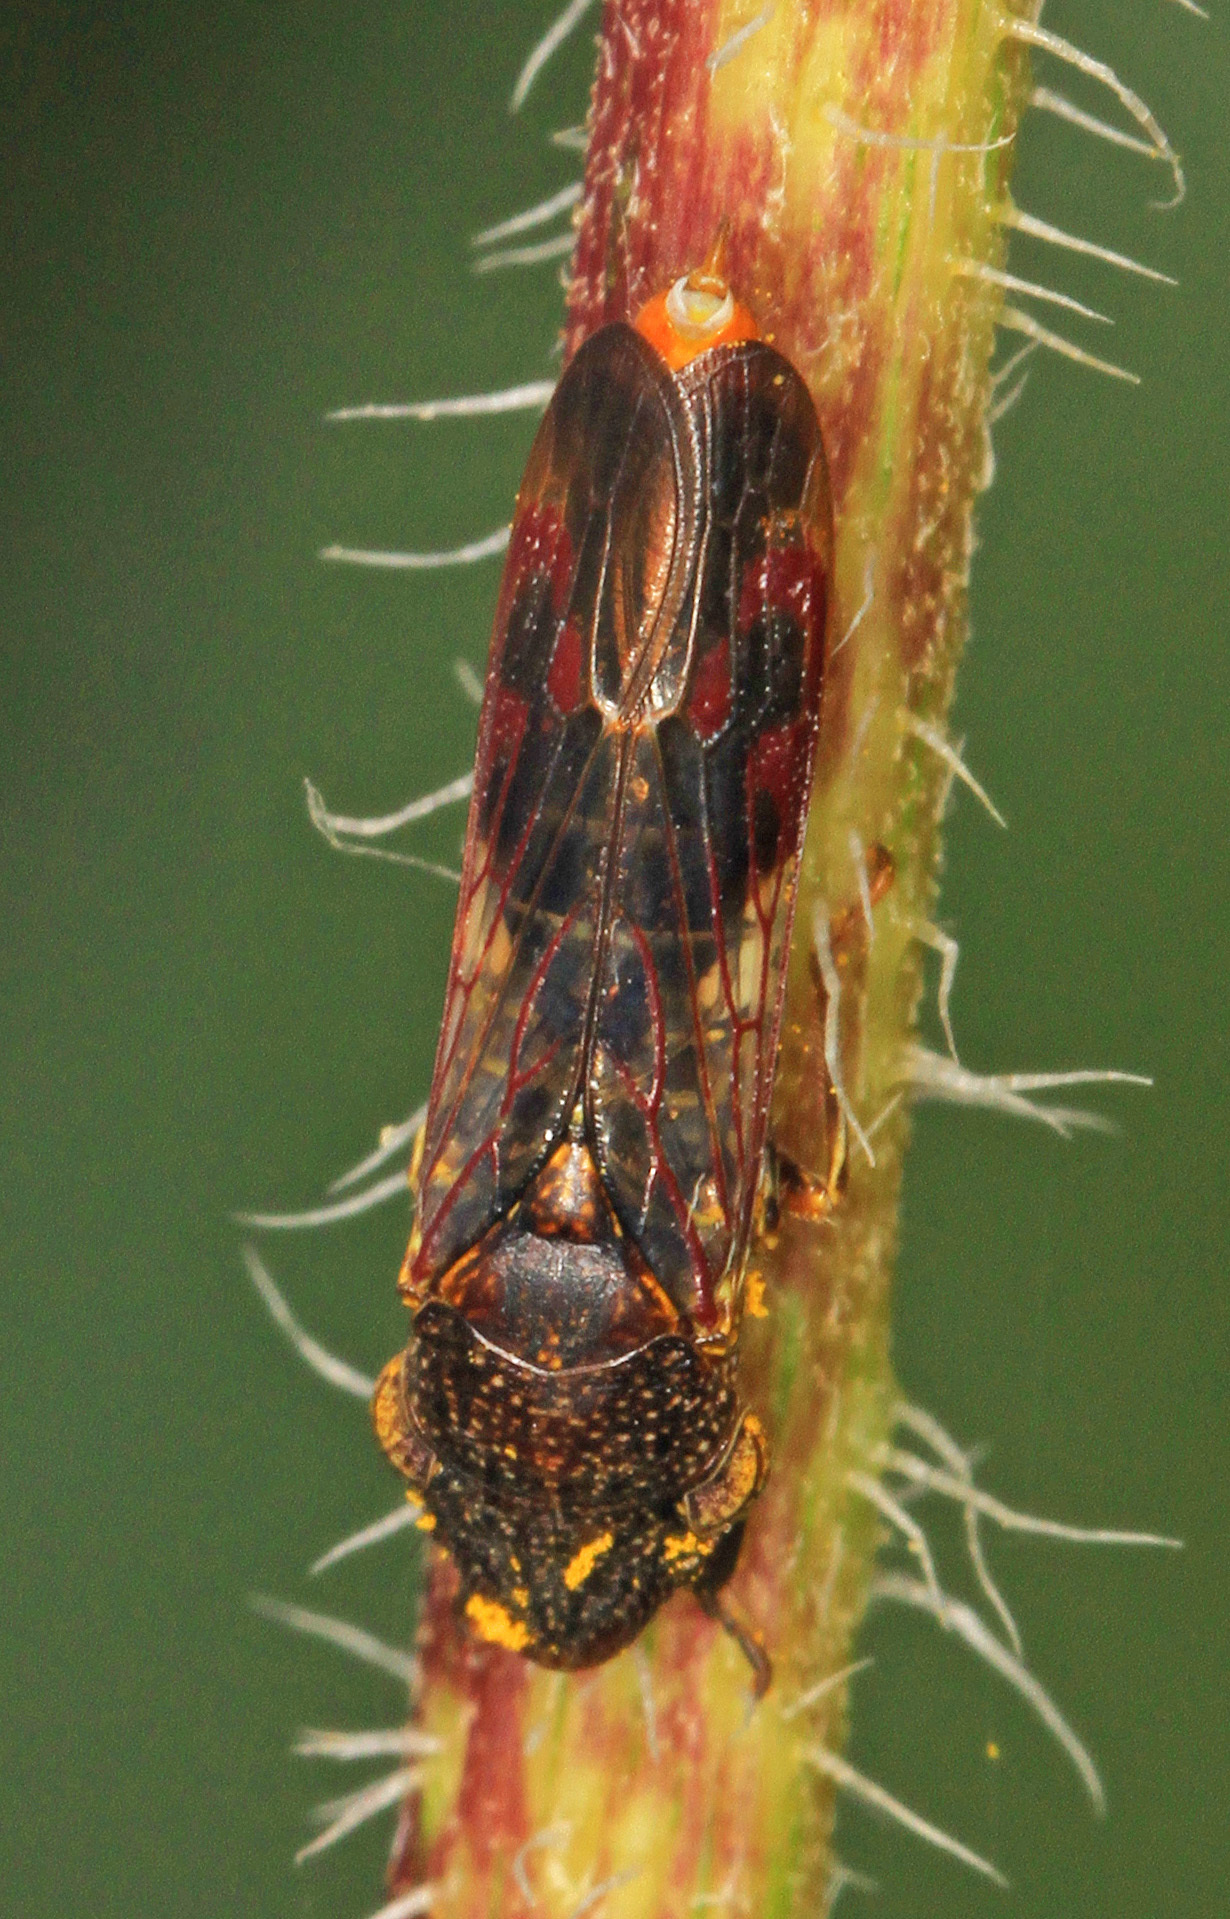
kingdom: Animalia
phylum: Arthropoda
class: Insecta
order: Hemiptera
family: Cicadellidae
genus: Homalodisca
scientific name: Homalodisca vitripennis
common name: Glassy-winged sharpshooter
